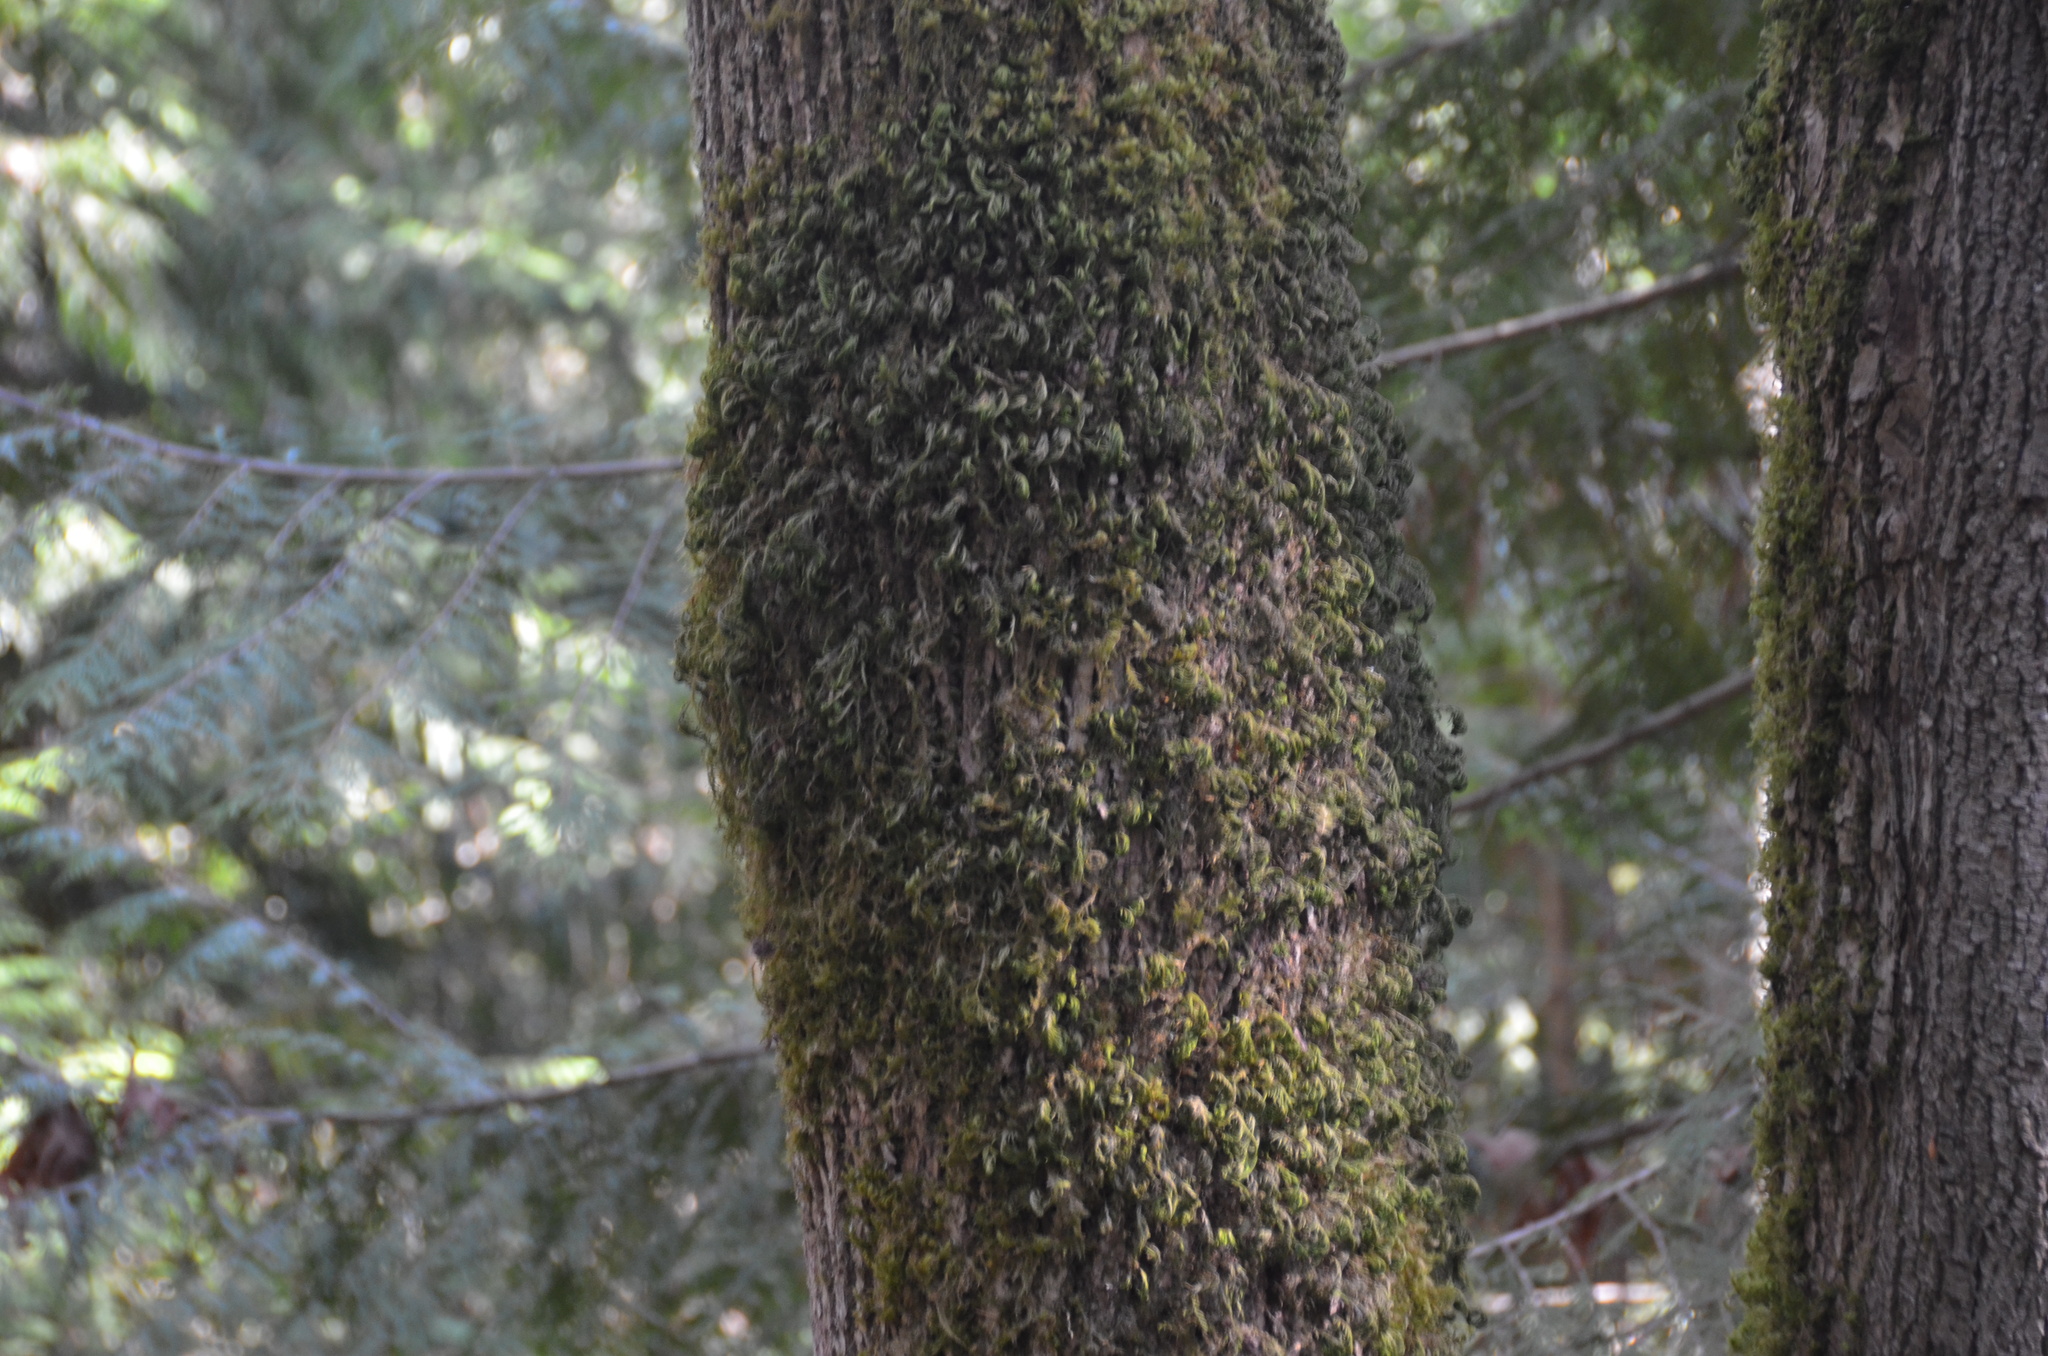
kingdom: Plantae
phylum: Tracheophyta
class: Magnoliopsida
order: Sapindales
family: Sapindaceae
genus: Acer
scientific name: Acer macrophyllum
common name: Oregon maple
